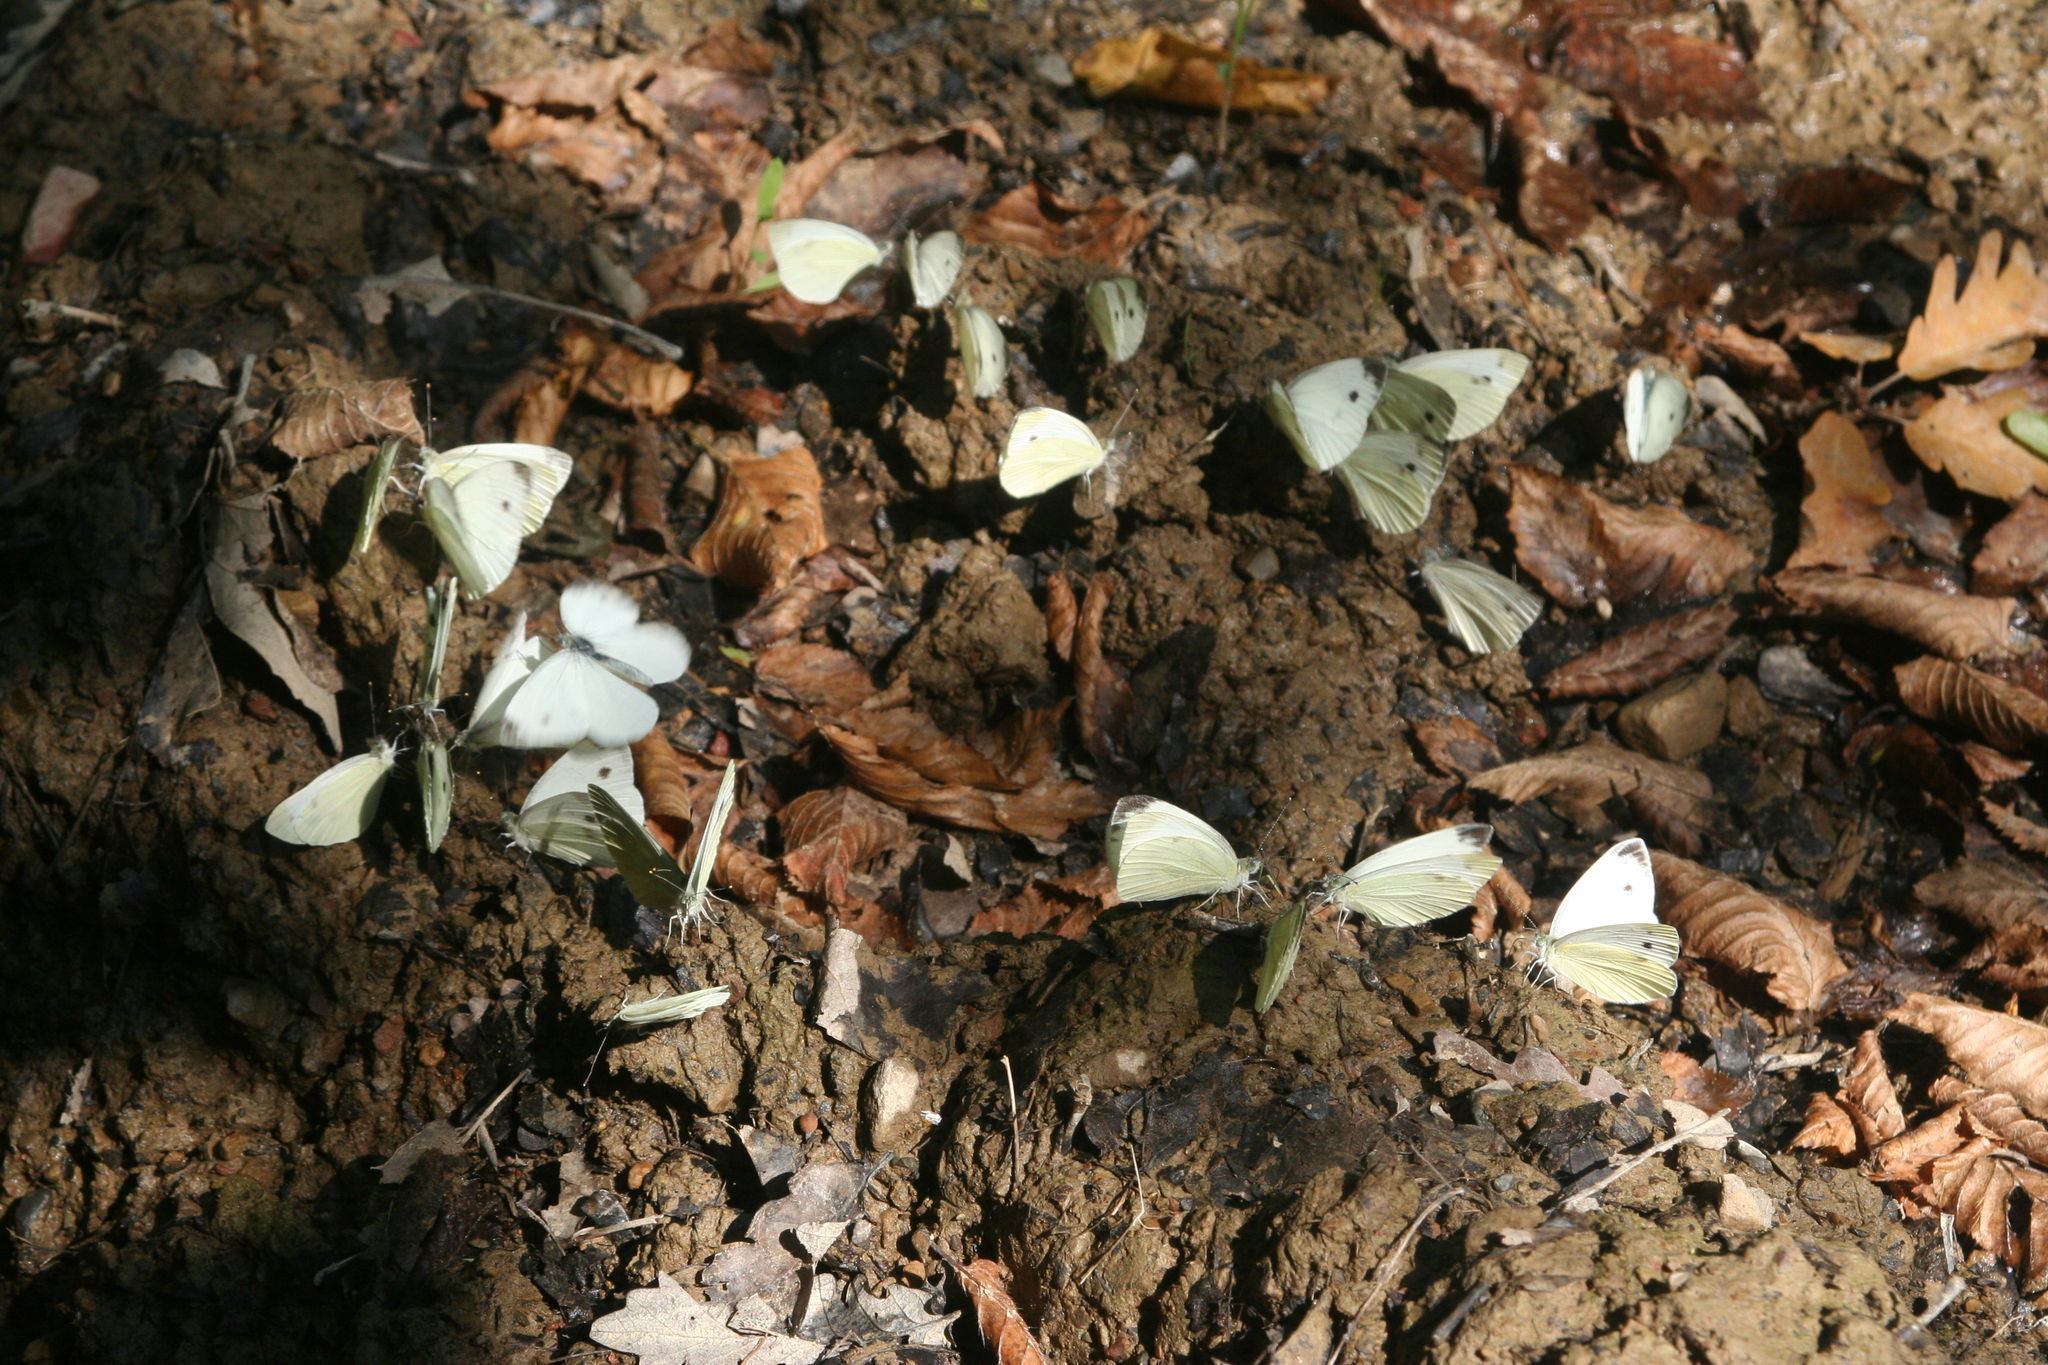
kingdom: Animalia
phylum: Arthropoda
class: Insecta
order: Lepidoptera
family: Pieridae
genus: Pieris
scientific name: Pieris napi
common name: Green-veined white
